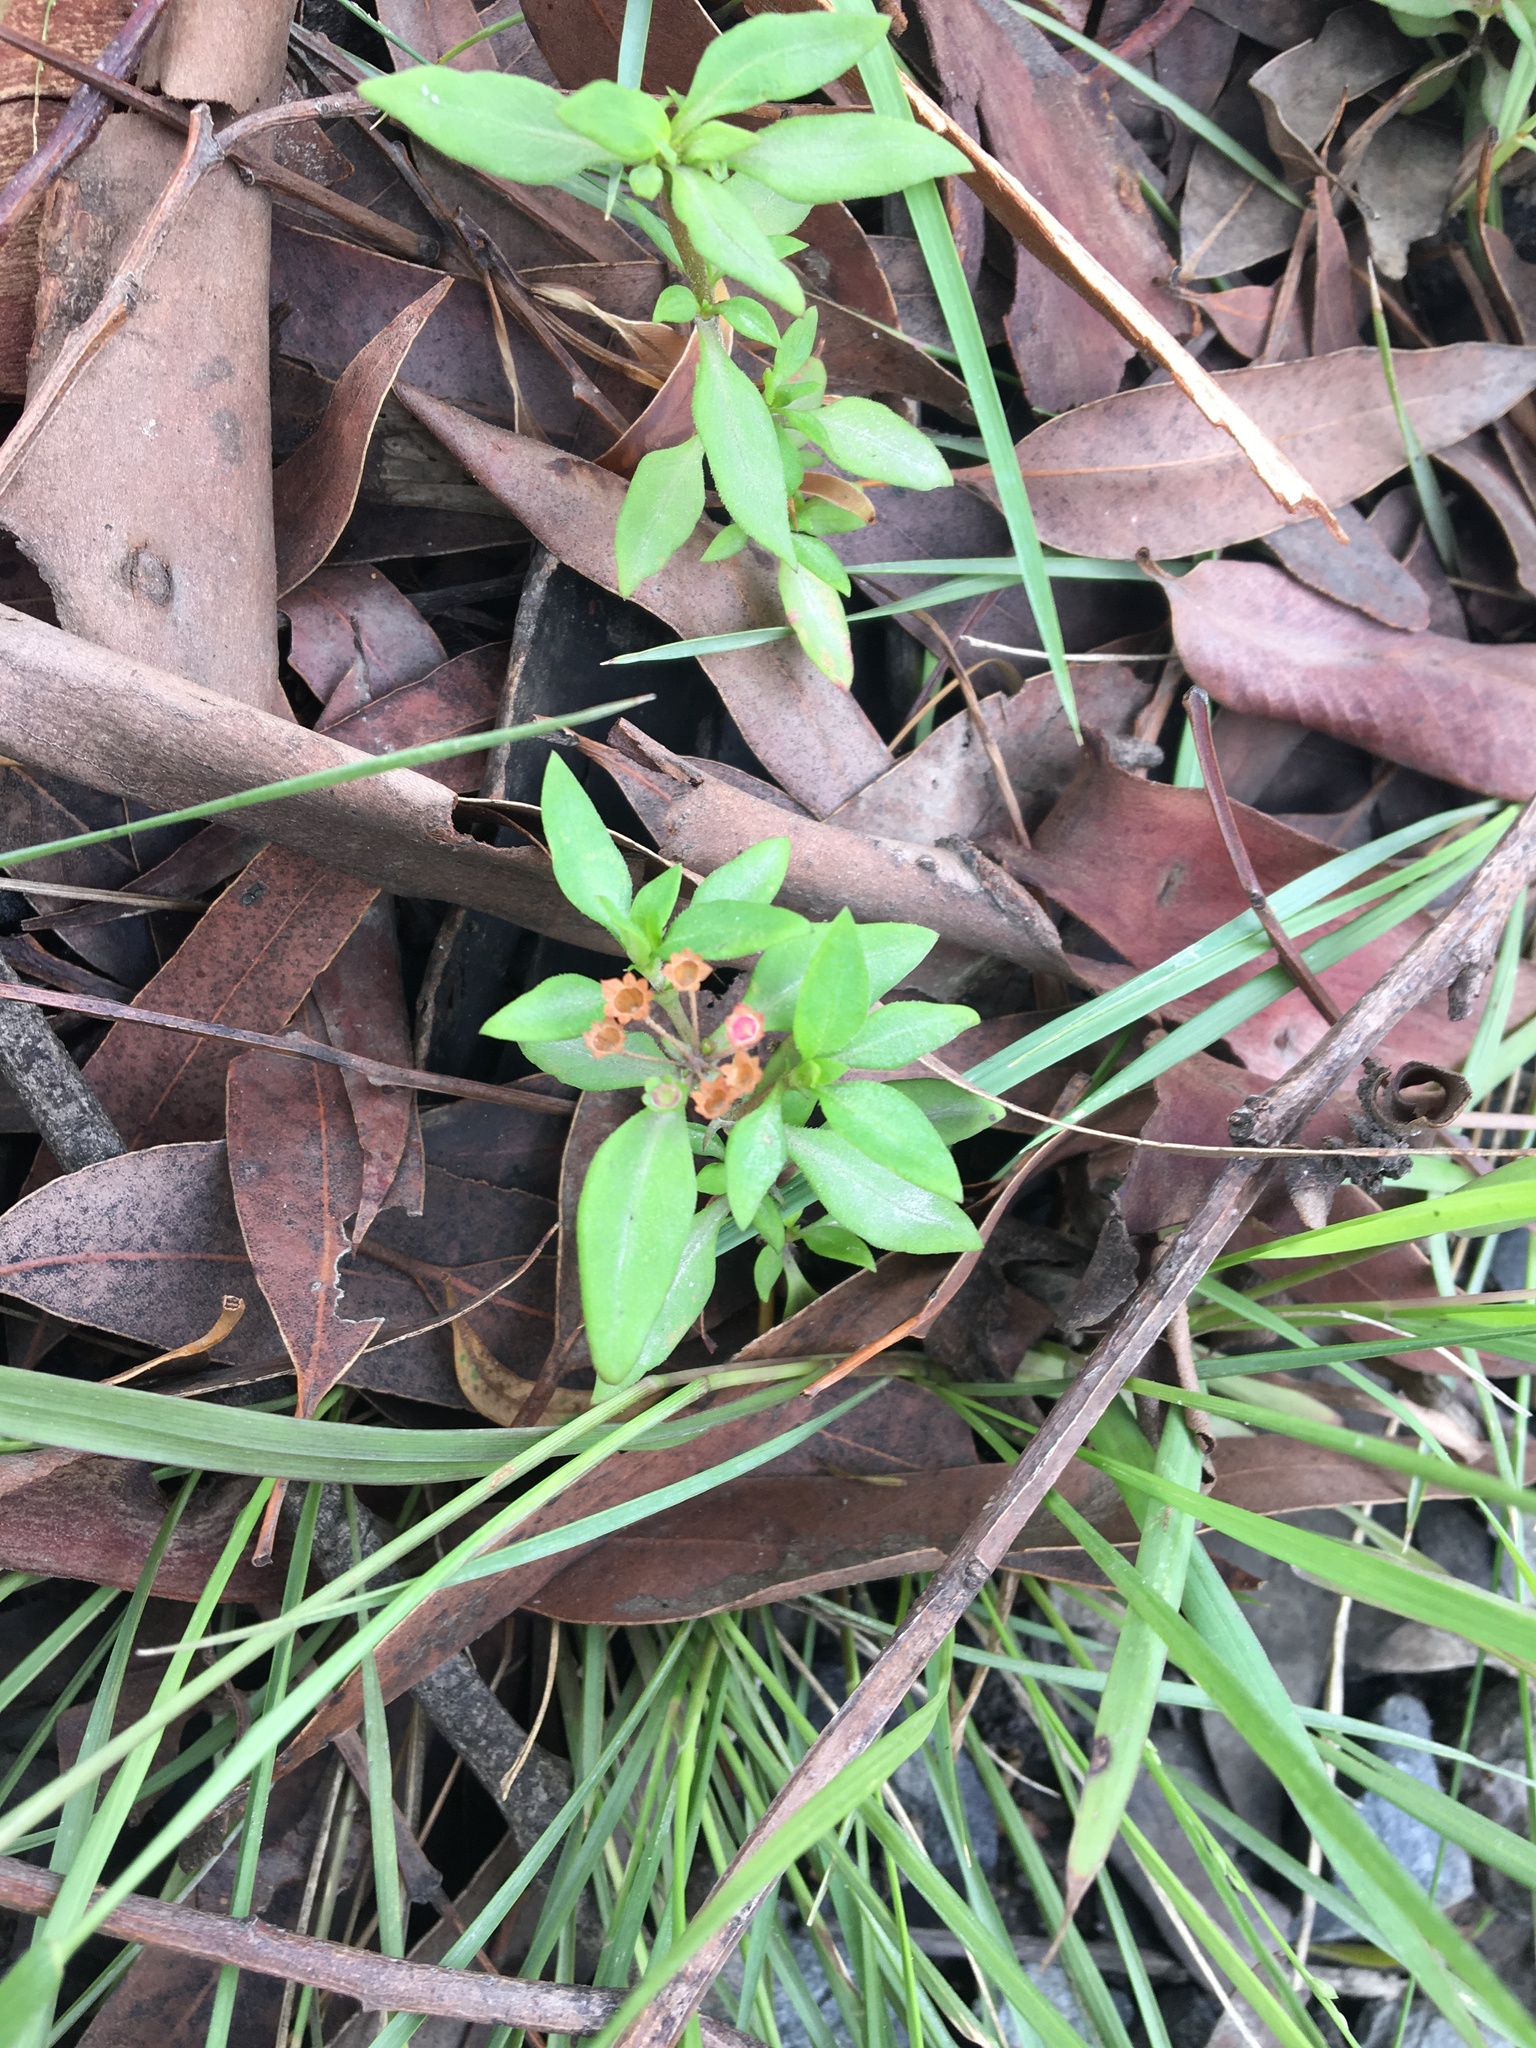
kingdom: Plantae
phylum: Tracheophyta
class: Magnoliopsida
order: Gentianales
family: Rubiaceae
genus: Pomax
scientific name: Pomax umbellata
